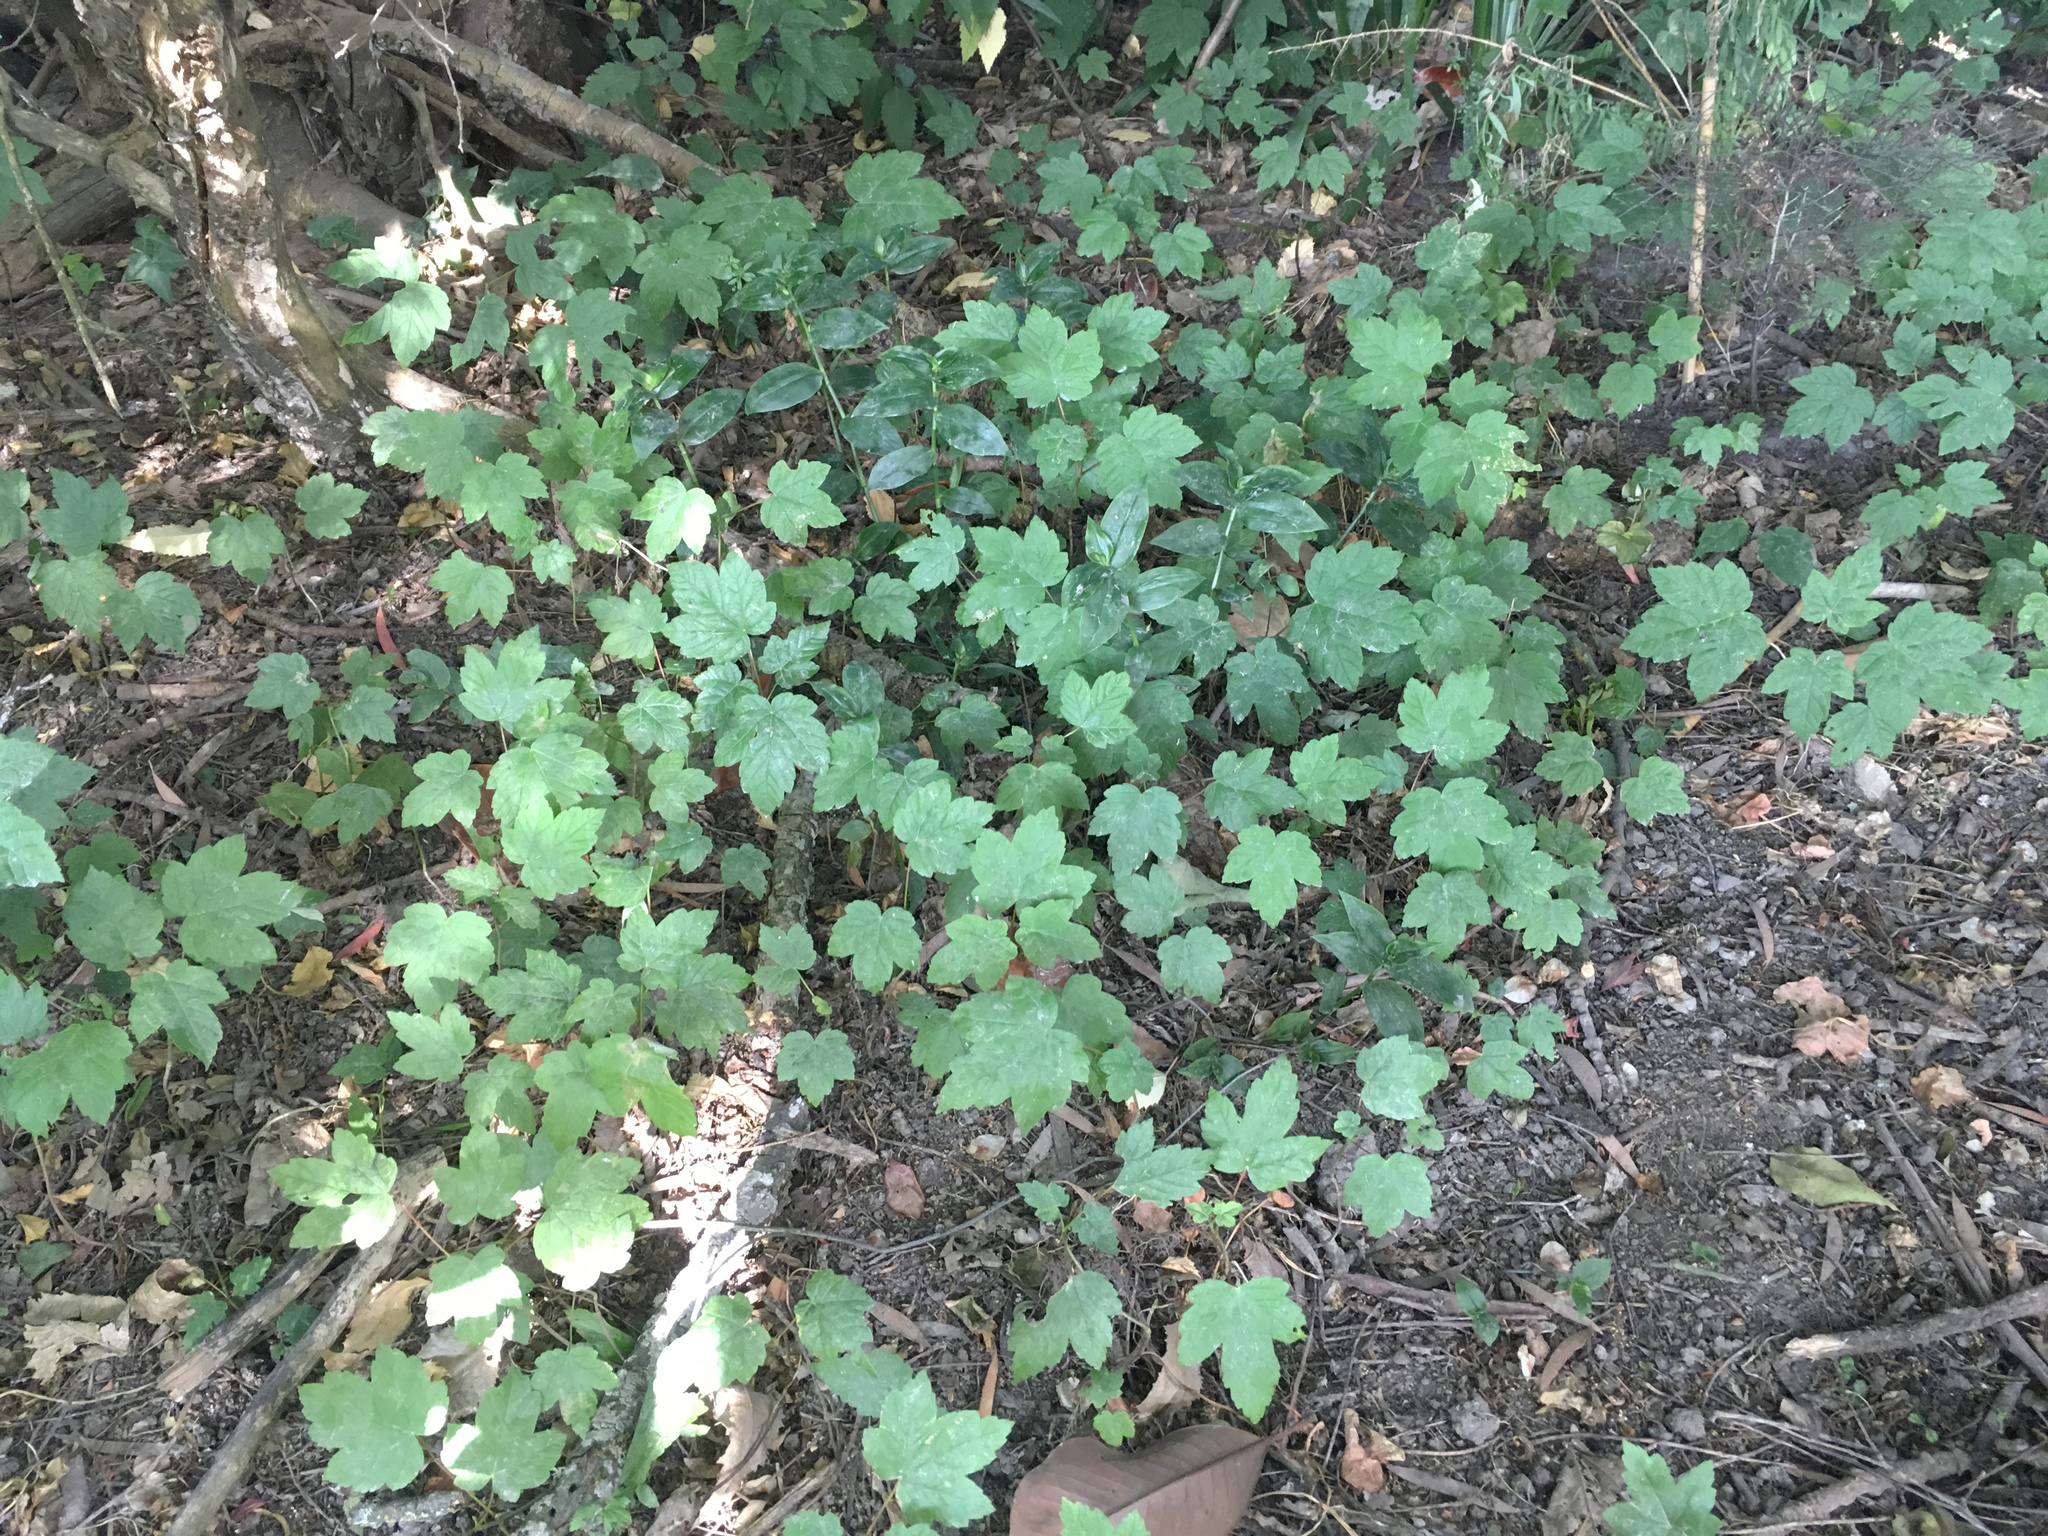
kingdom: Plantae
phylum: Tracheophyta
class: Magnoliopsida
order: Sapindales
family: Sapindaceae
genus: Acer
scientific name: Acer pseudoplatanus
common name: Sycamore
